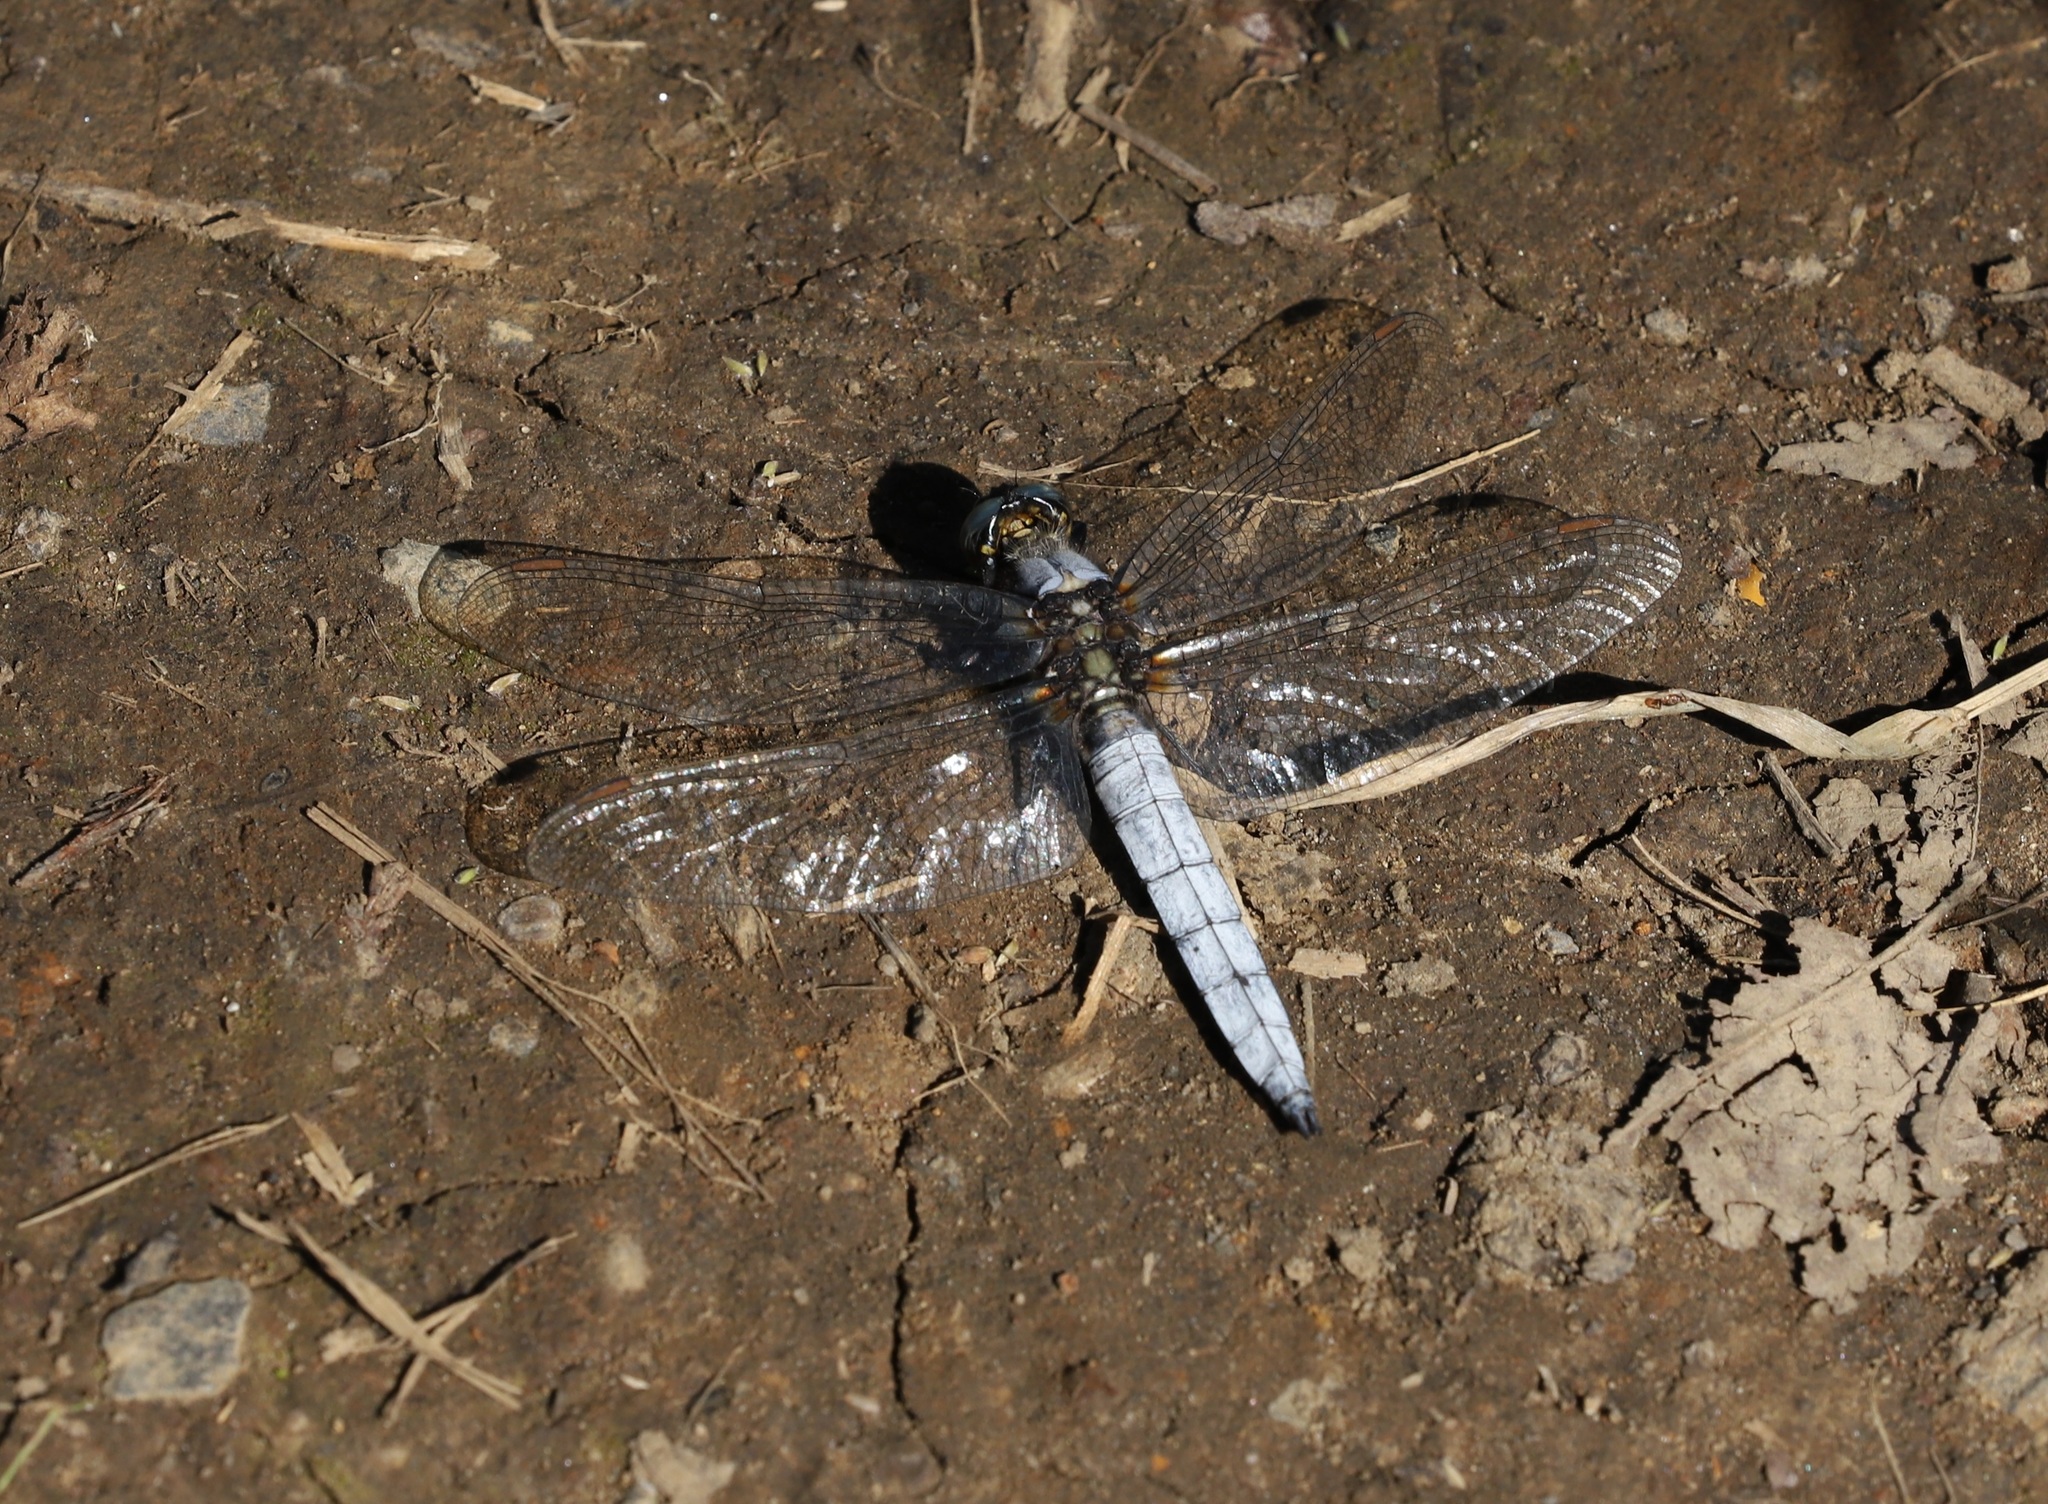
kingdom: Animalia
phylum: Arthropoda
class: Insecta
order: Odonata
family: Libellulidae
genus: Orthetrum
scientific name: Orthetrum japonicum
